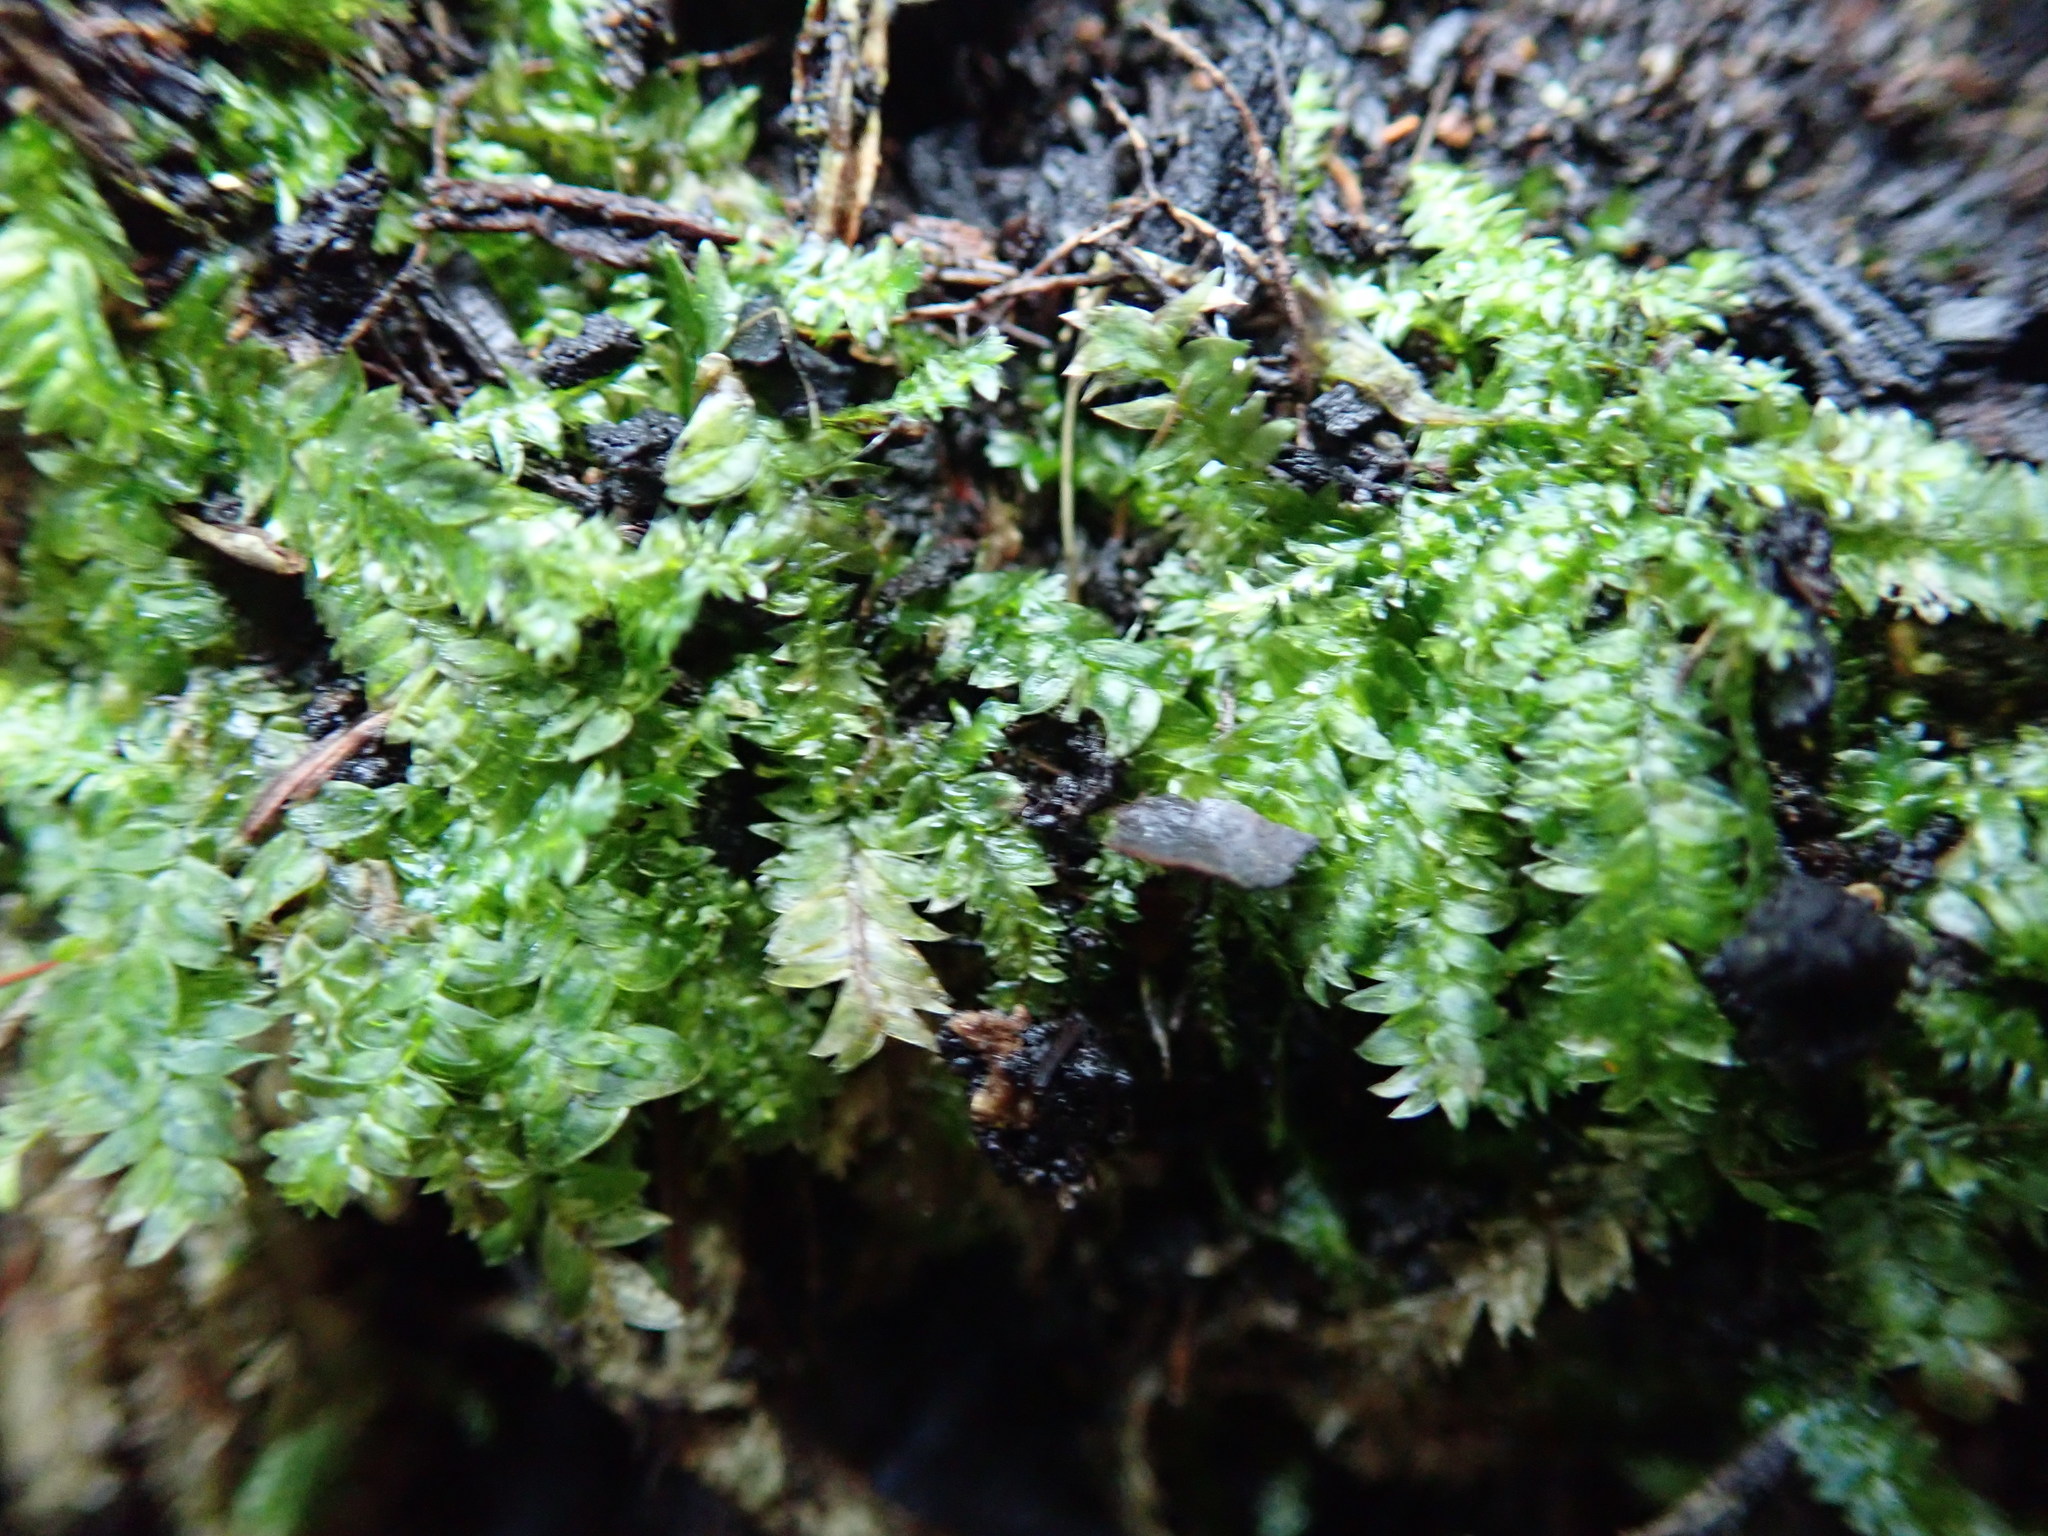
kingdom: Plantae
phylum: Bryophyta
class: Bryopsida
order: Hypnales
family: Plagiotheciaceae
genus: Plagiothecium
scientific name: Plagiothecium denticulatum
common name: Dented silk moss
